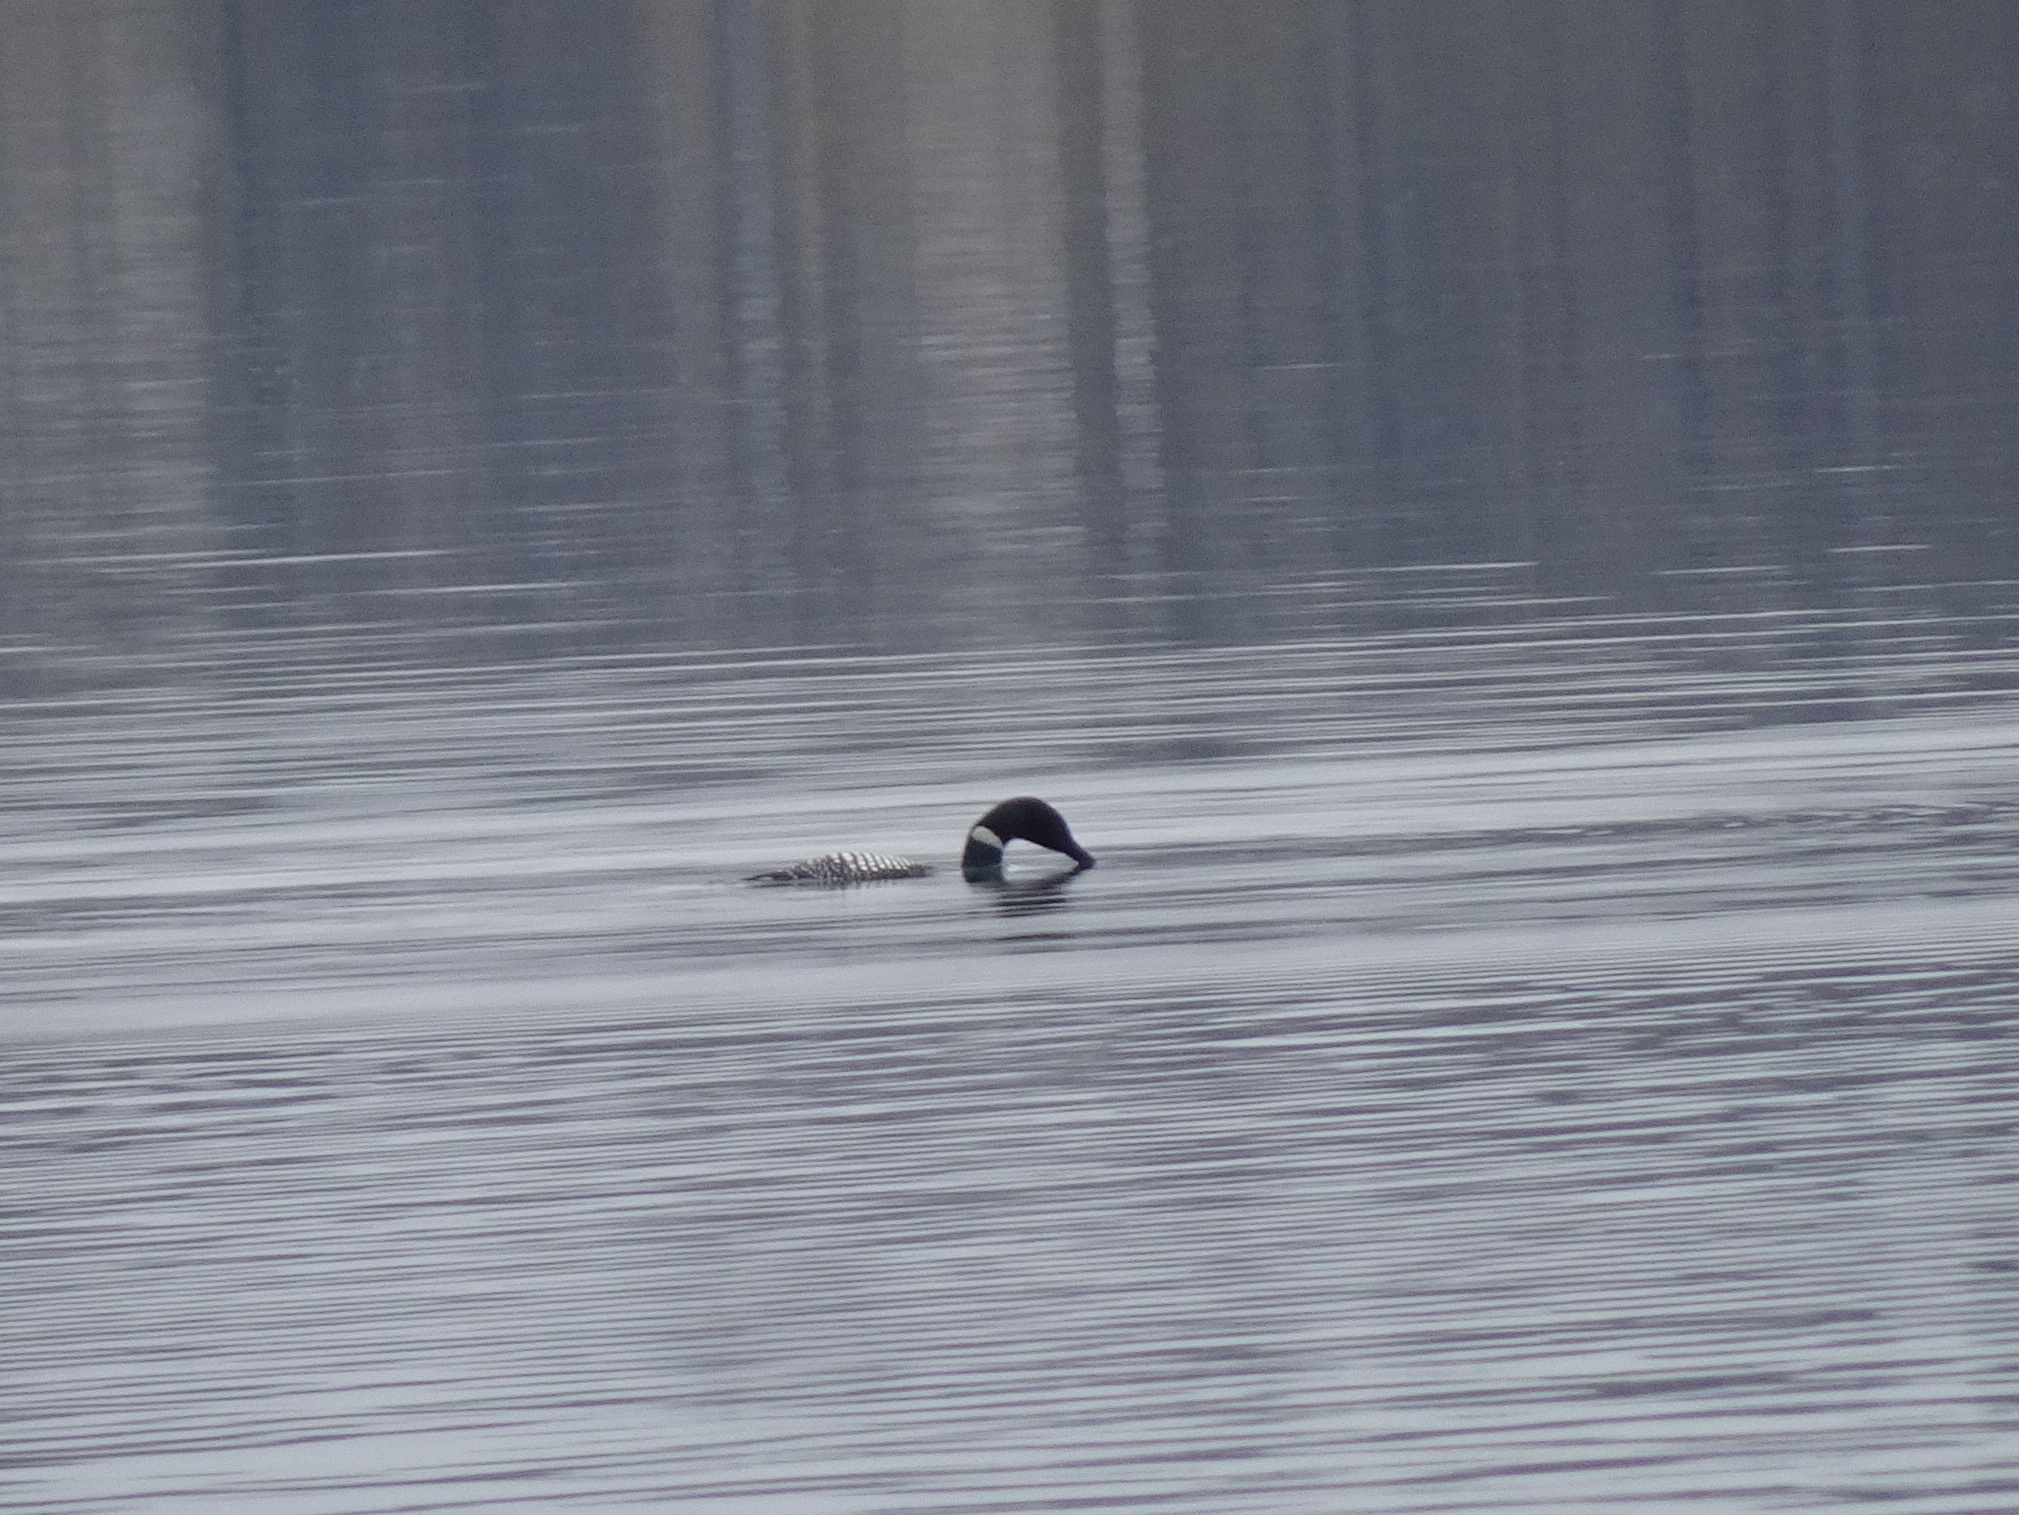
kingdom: Animalia
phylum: Chordata
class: Aves
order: Gaviiformes
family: Gaviidae
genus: Gavia
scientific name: Gavia immer
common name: Common loon
